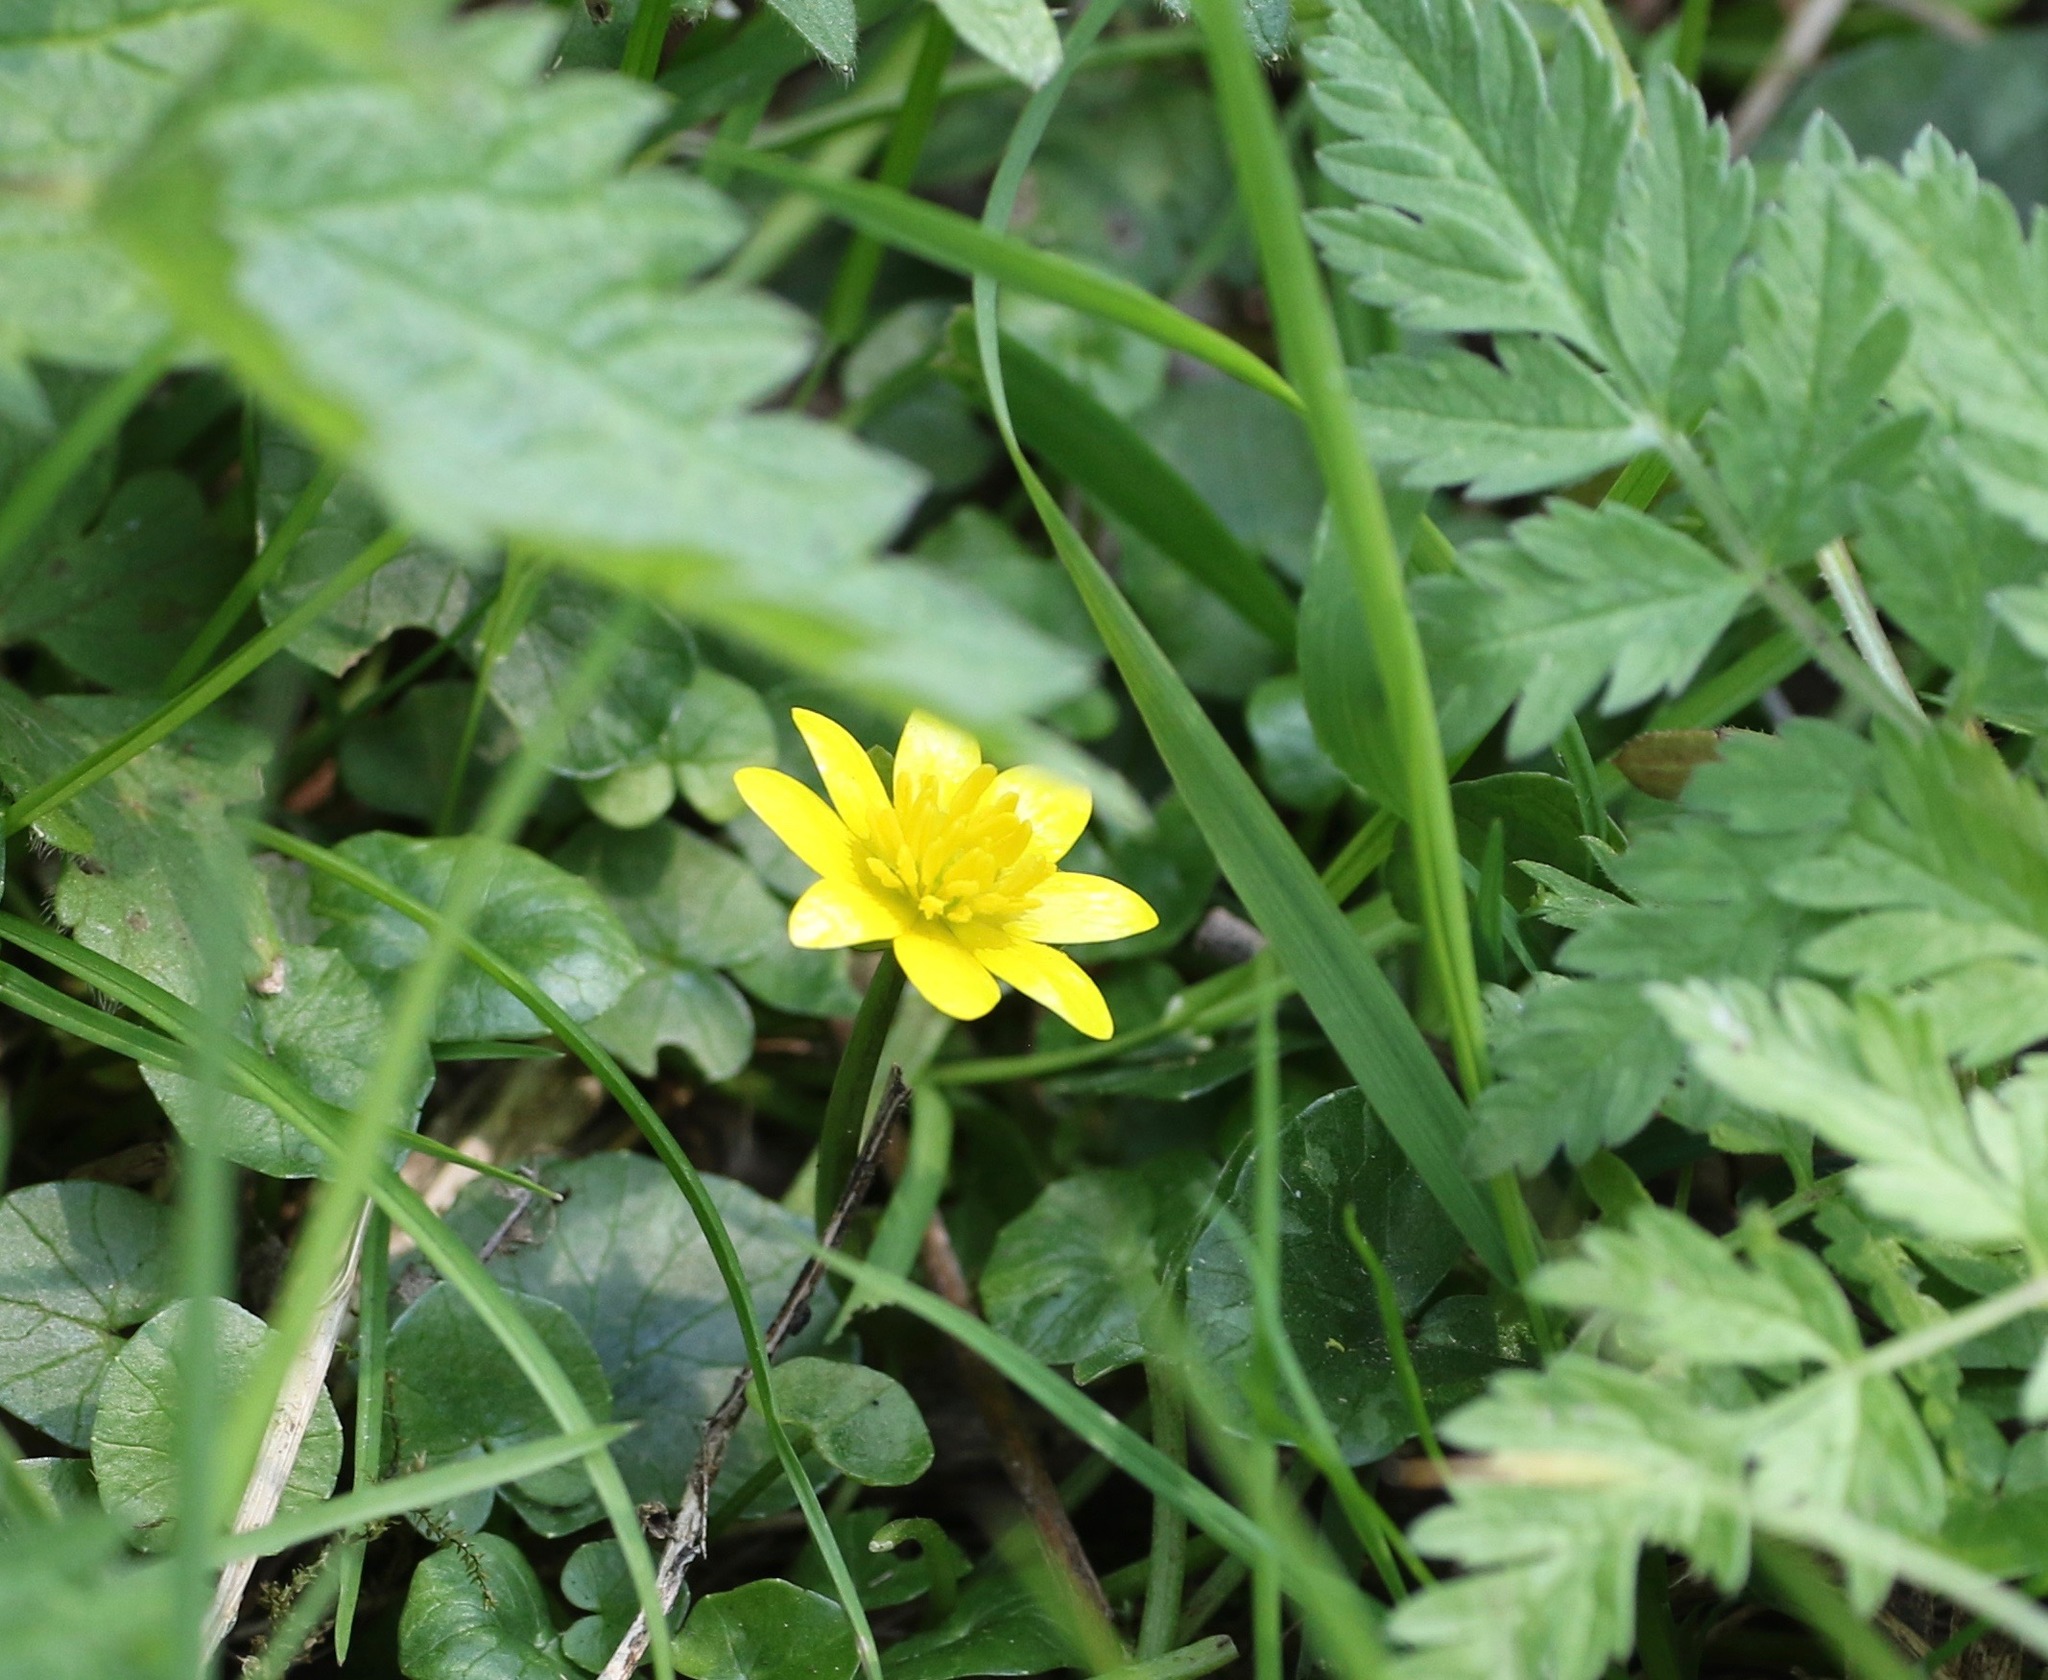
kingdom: Plantae
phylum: Tracheophyta
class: Magnoliopsida
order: Ranunculales
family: Ranunculaceae
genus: Ficaria
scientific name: Ficaria verna
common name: Lesser celandine
